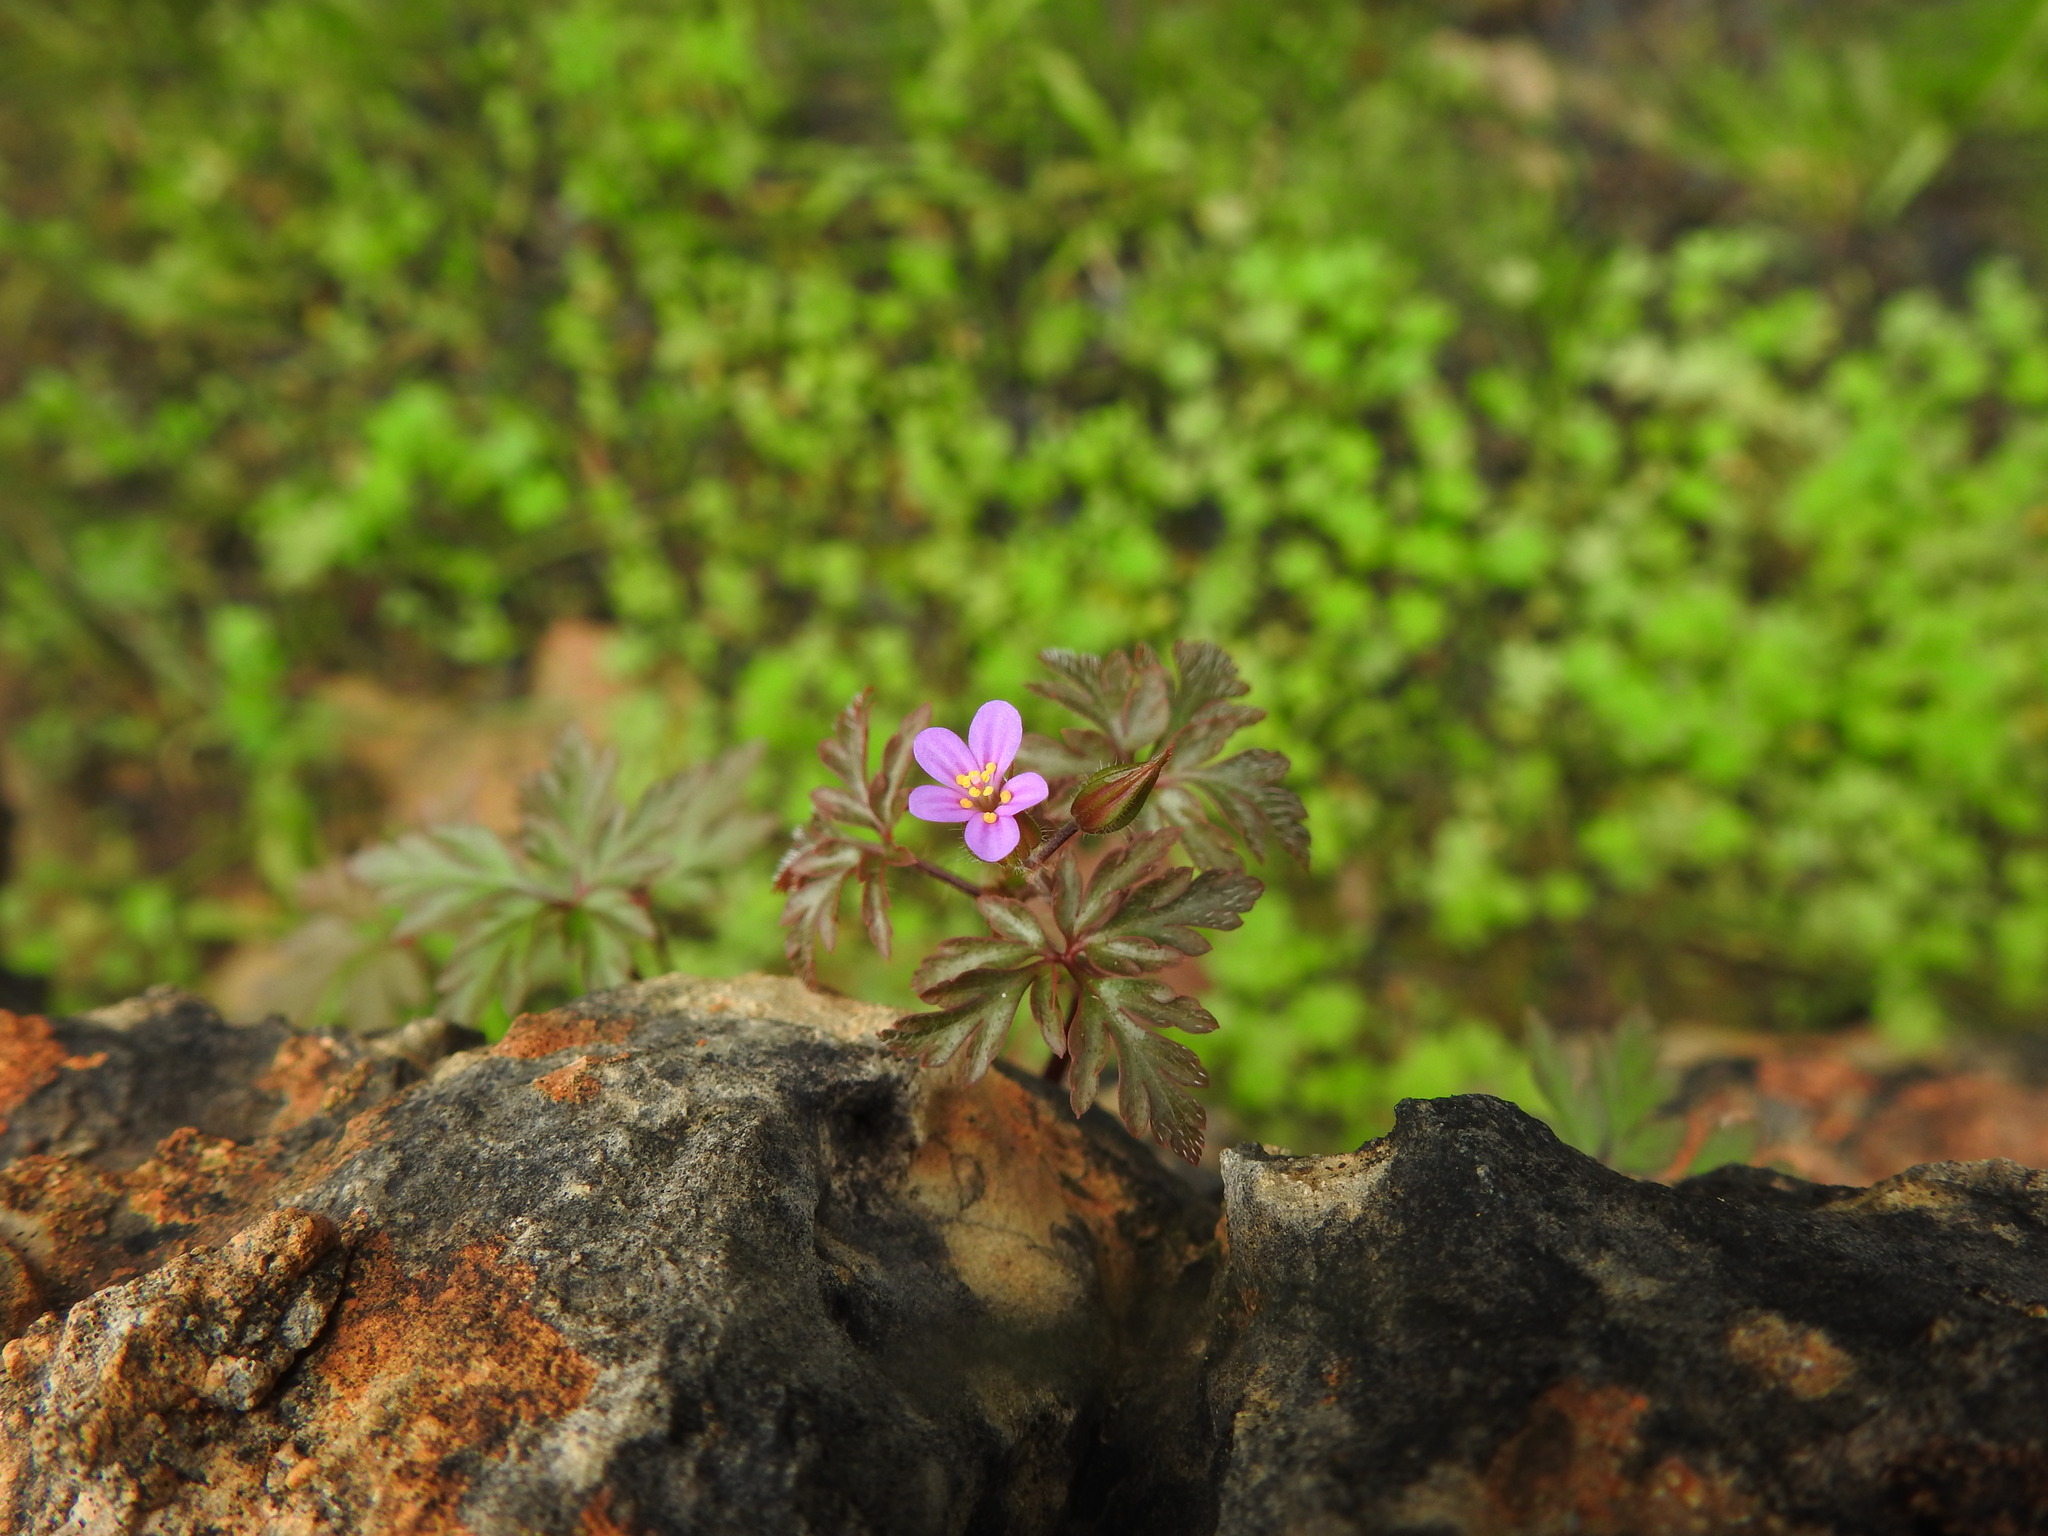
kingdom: Plantae
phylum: Tracheophyta
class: Magnoliopsida
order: Geraniales
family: Geraniaceae
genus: Geranium
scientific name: Geranium purpureum
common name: Little-robin
